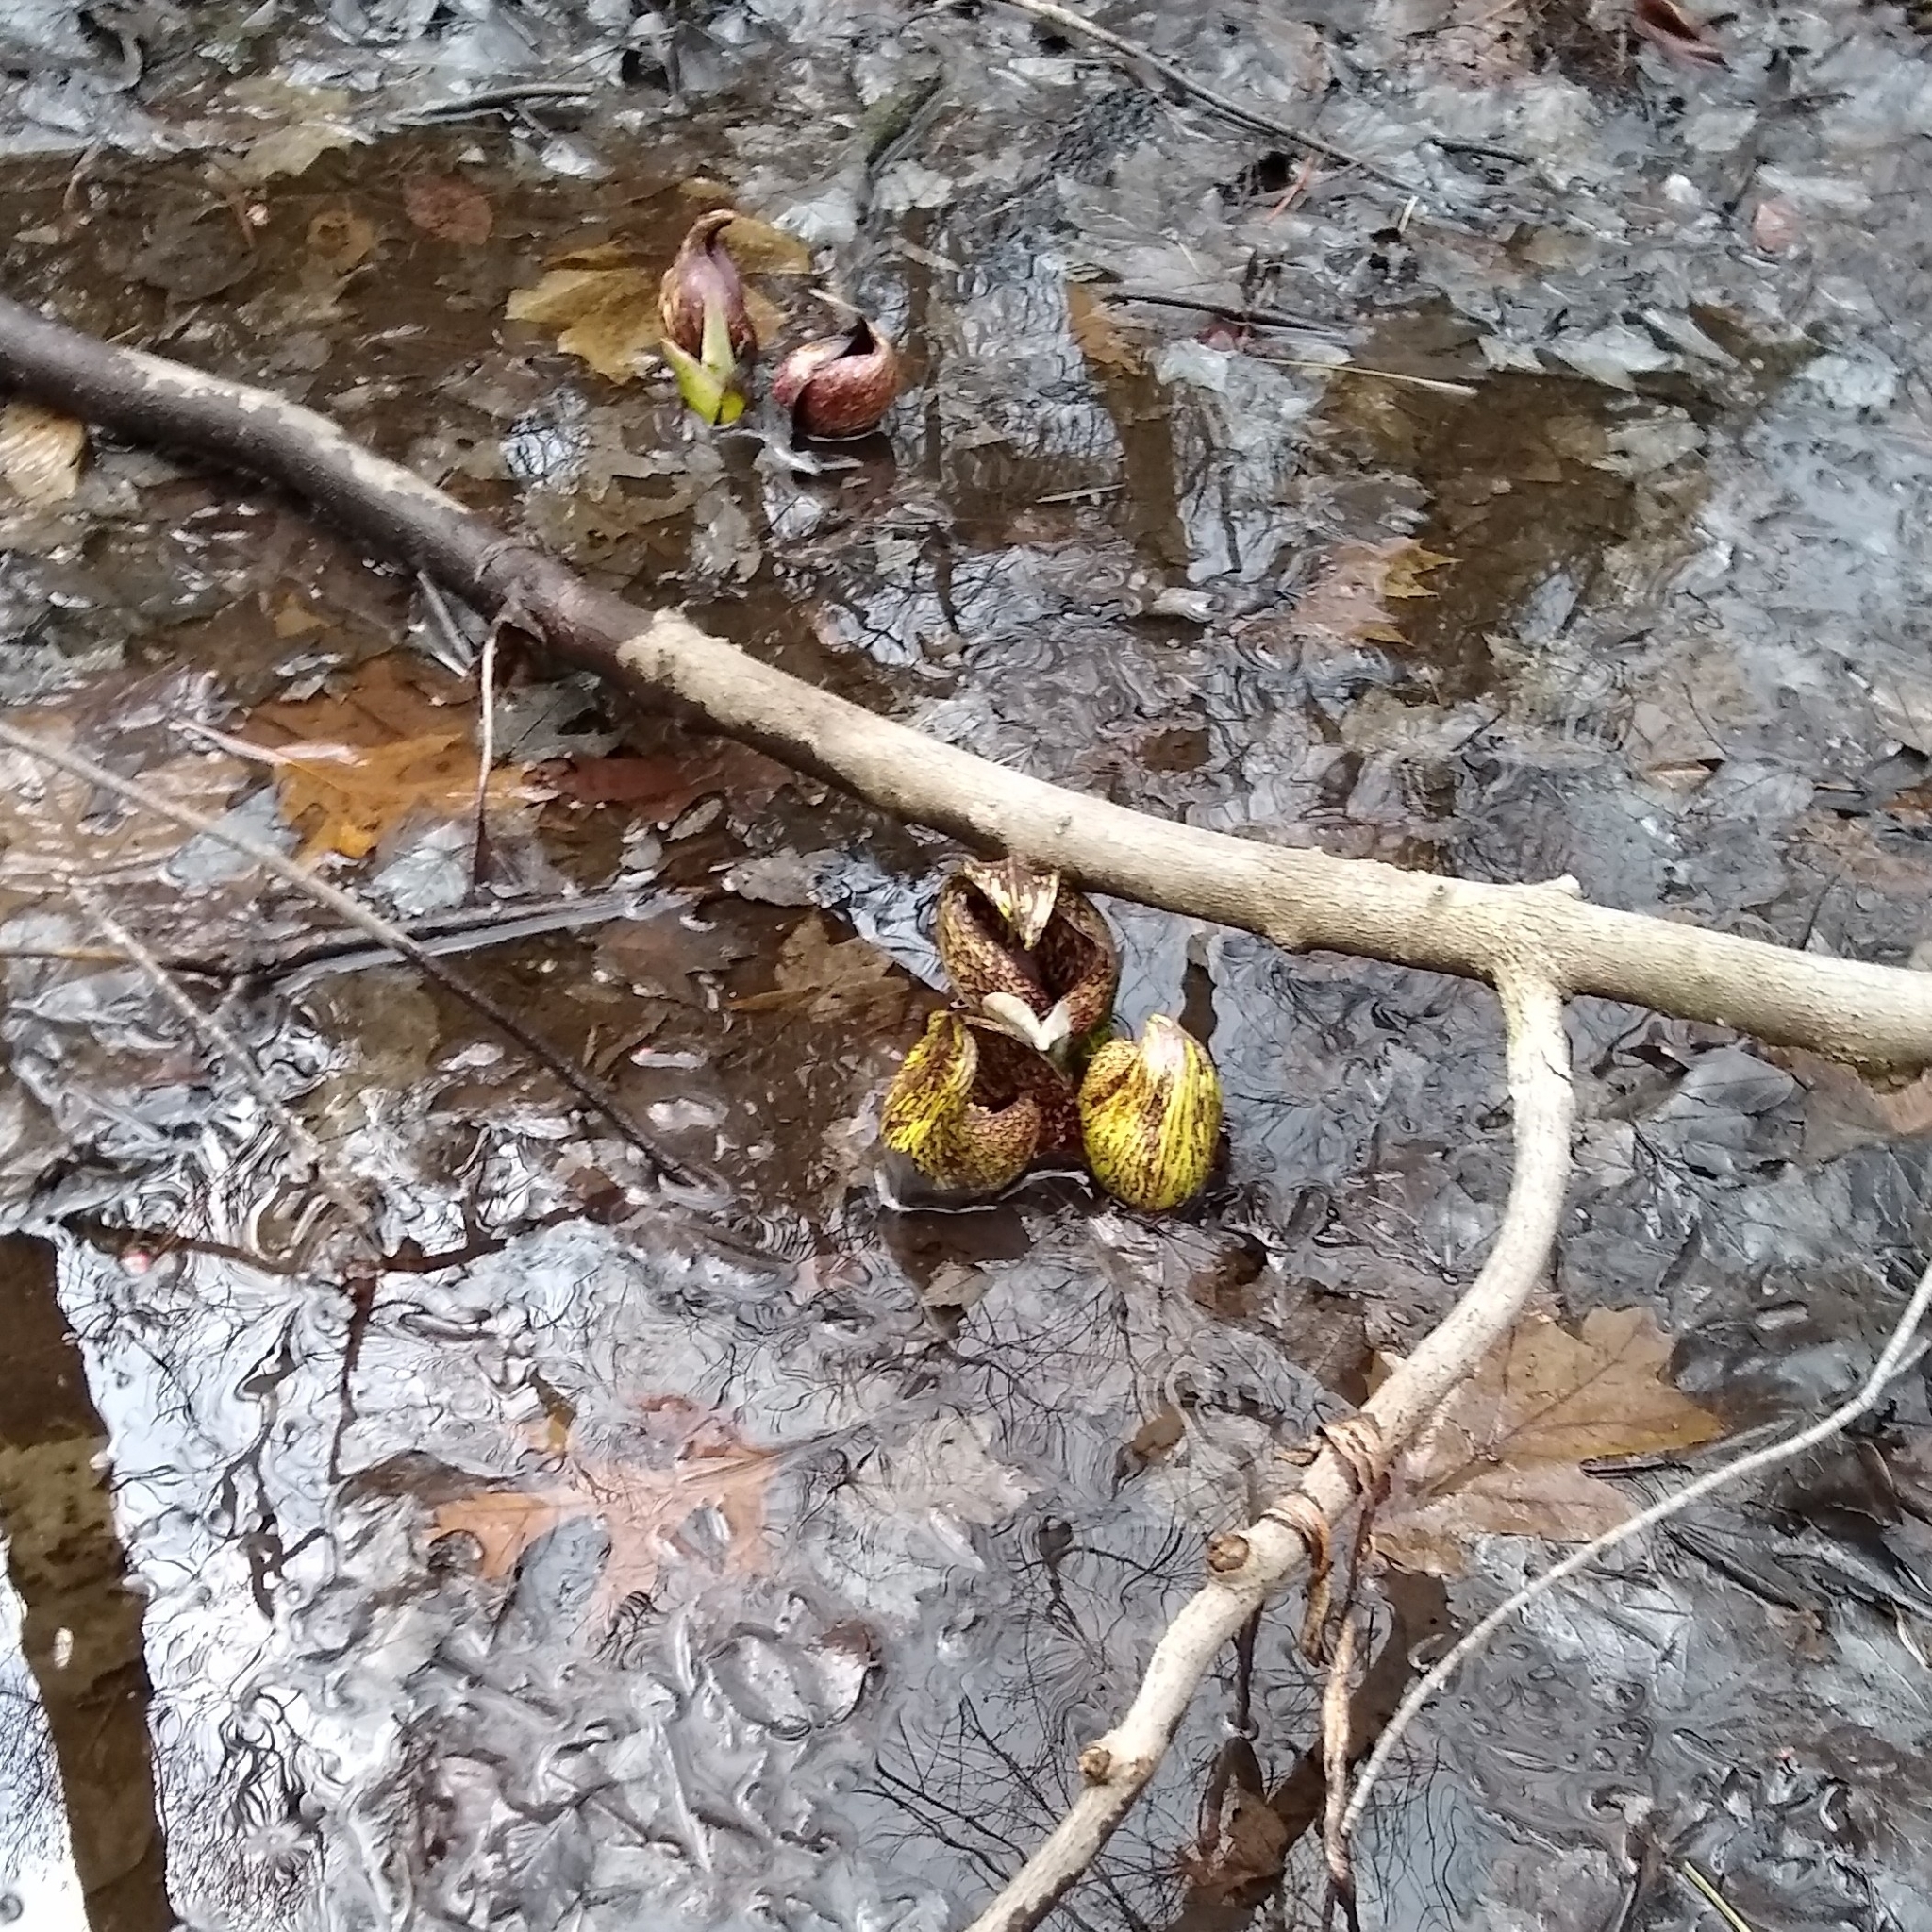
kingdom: Plantae
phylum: Tracheophyta
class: Liliopsida
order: Alismatales
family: Araceae
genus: Symplocarpus
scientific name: Symplocarpus foetidus
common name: Eastern skunk cabbage
